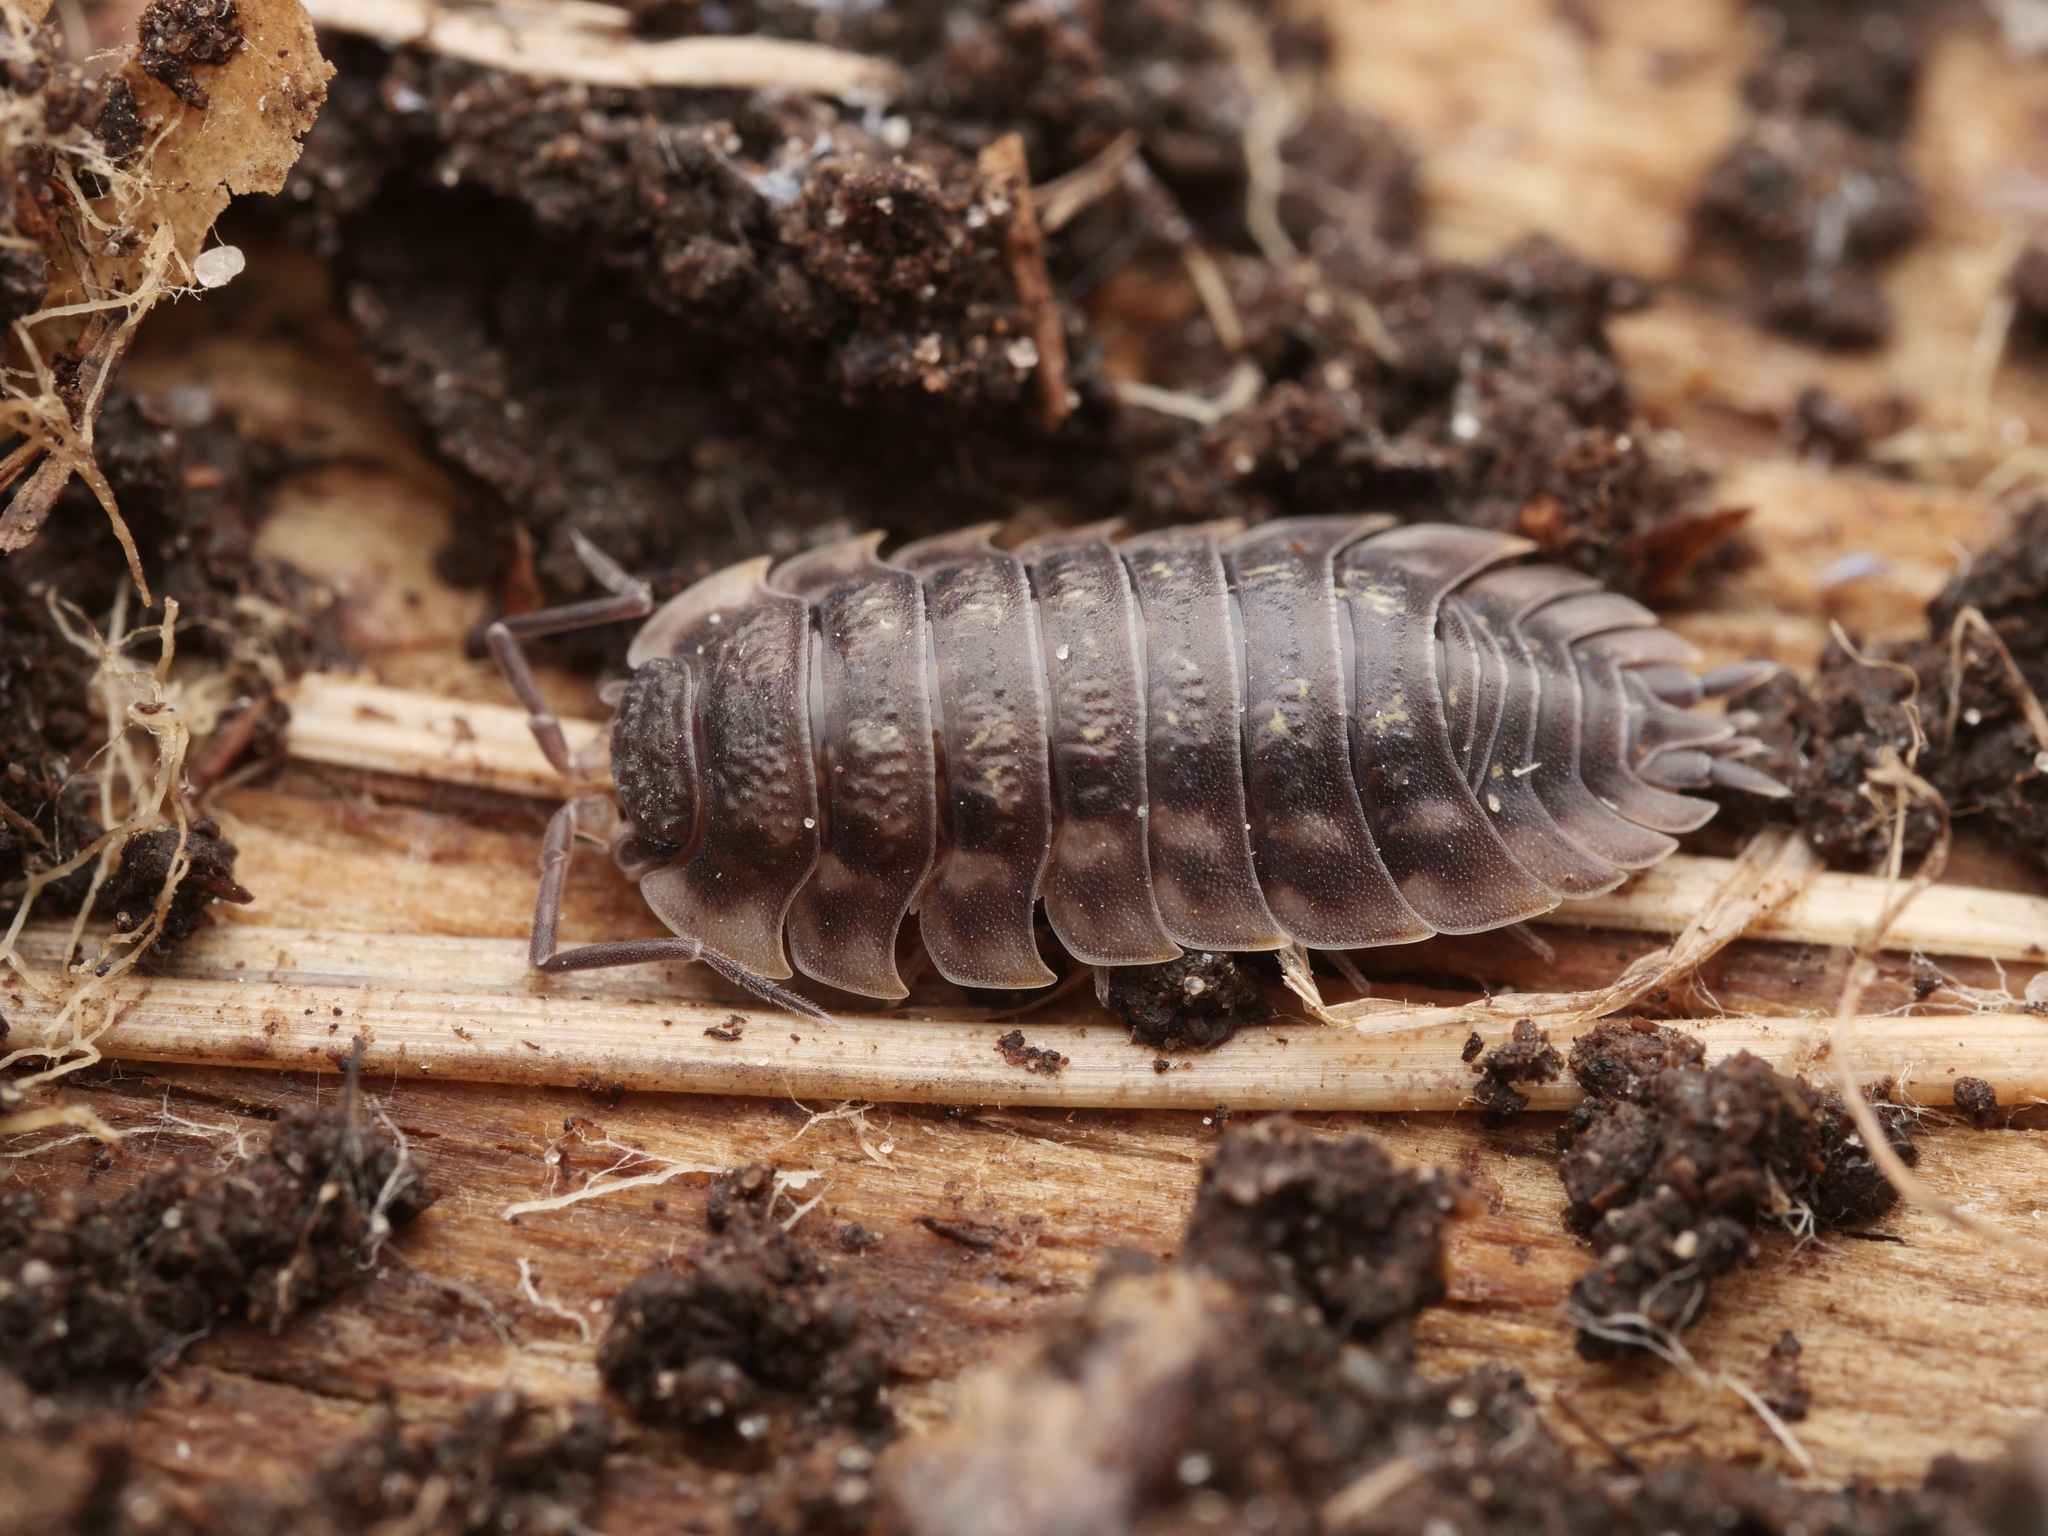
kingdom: Animalia
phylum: Arthropoda
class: Malacostraca
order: Isopoda
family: Oniscidae
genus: Oniscus
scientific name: Oniscus asellus
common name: Common shiny woodlouse
